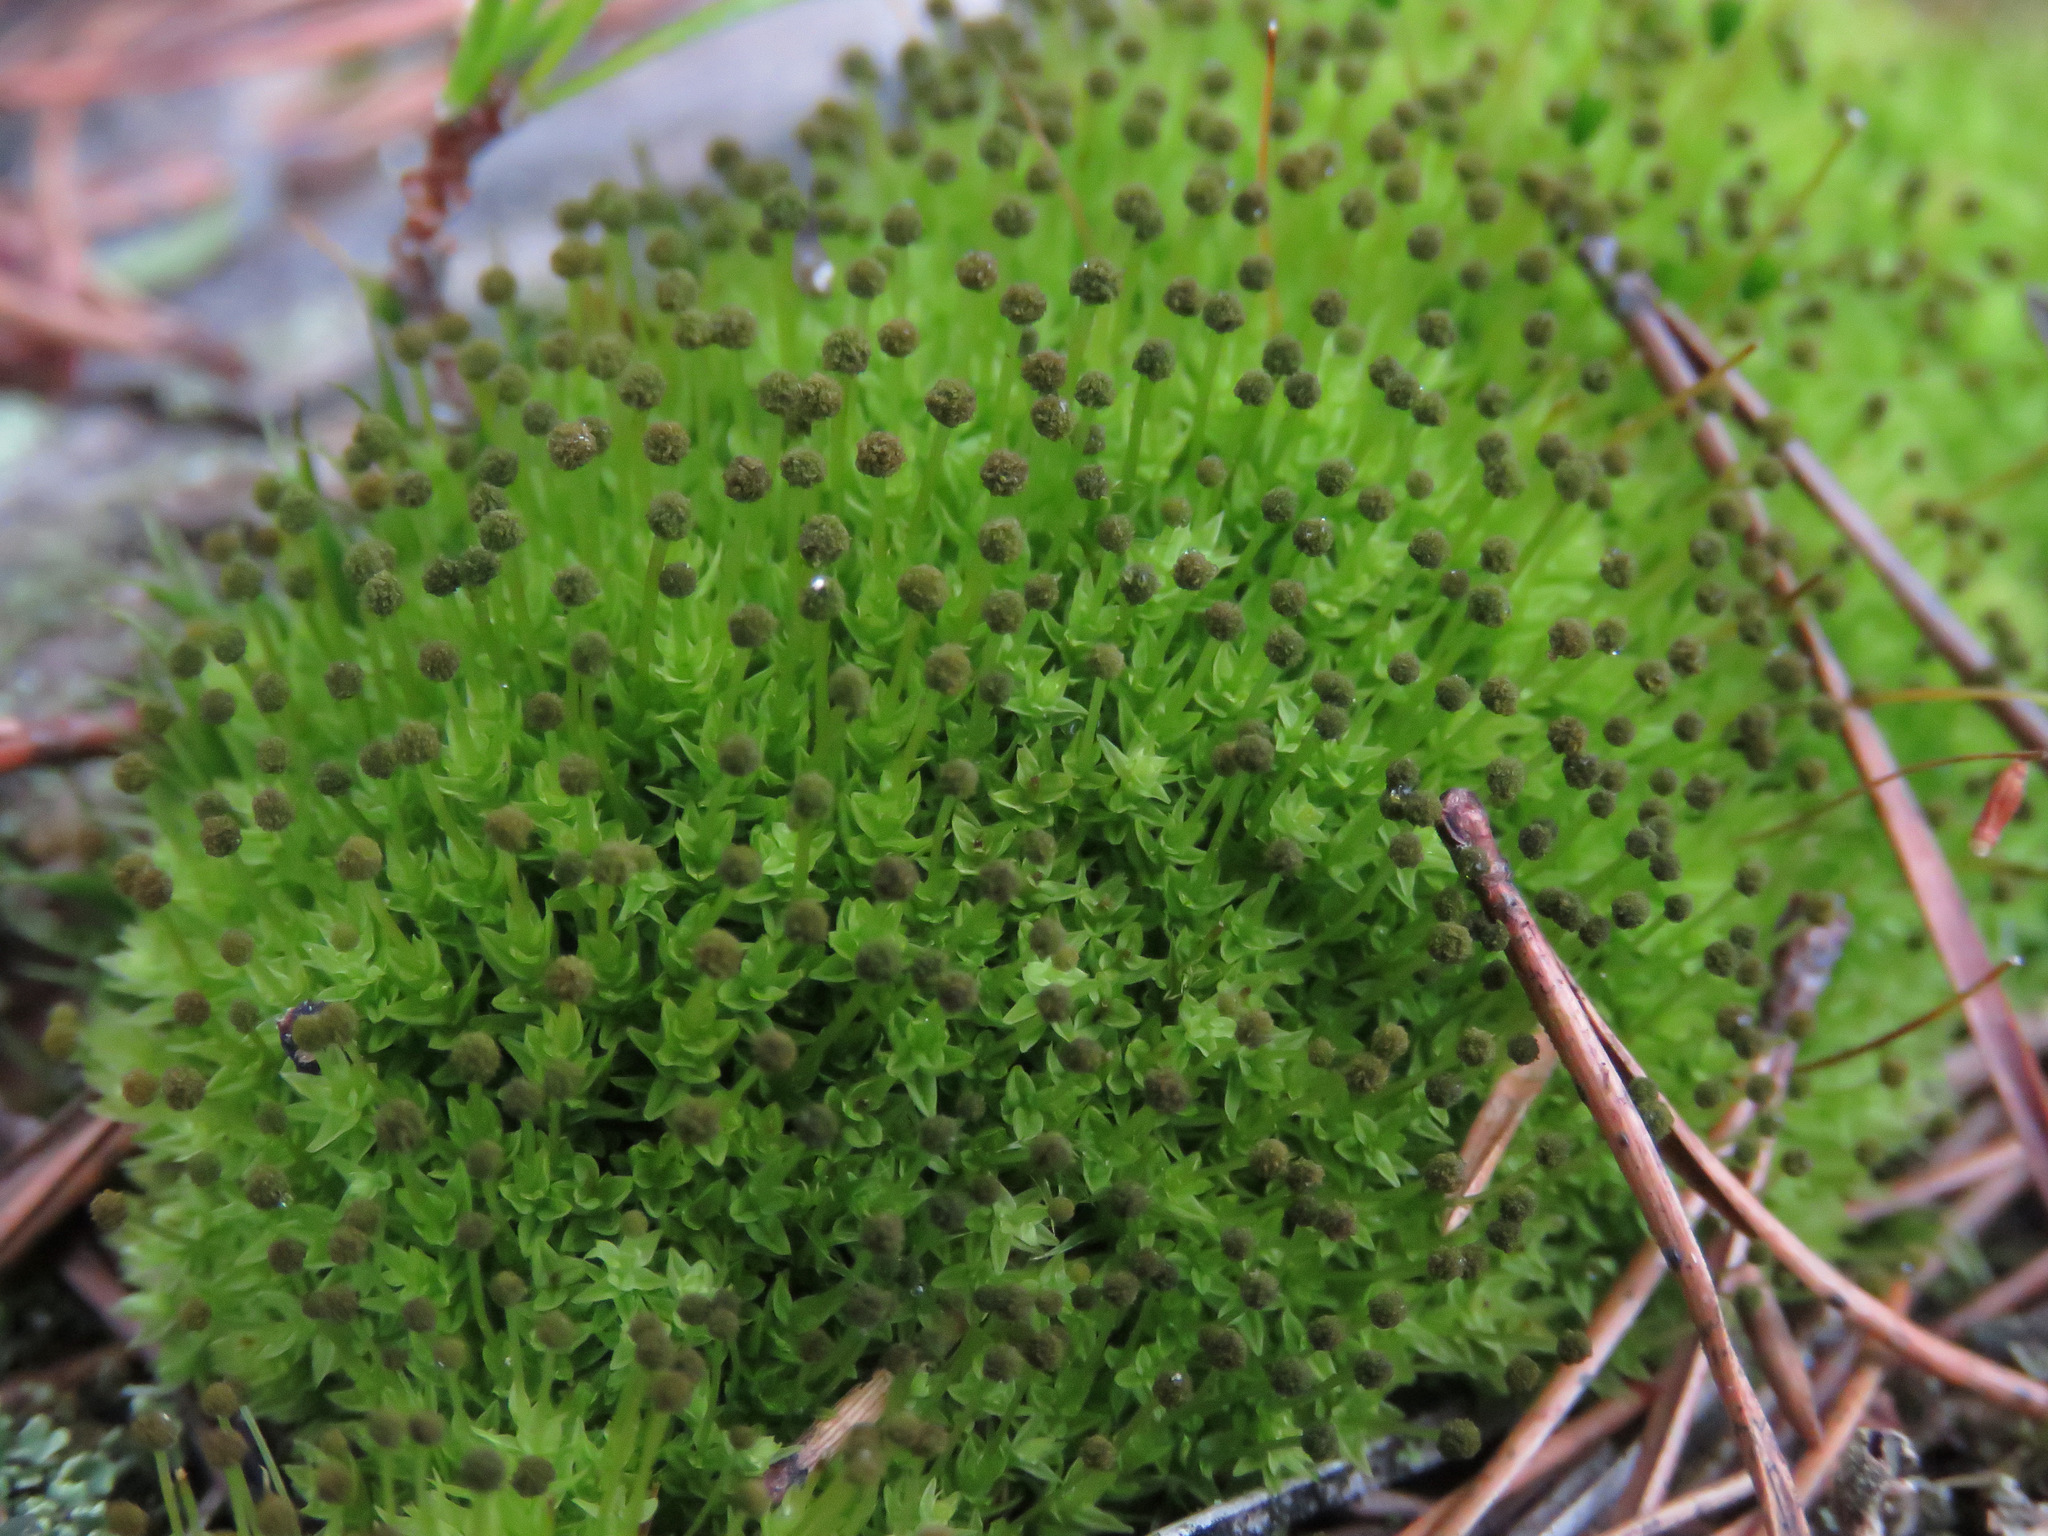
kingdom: Plantae
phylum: Bryophyta
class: Bryopsida
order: Aulacomniales
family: Aulacomniaceae
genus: Aulacomnium
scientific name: Aulacomnium androgynum
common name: Little groove moss
